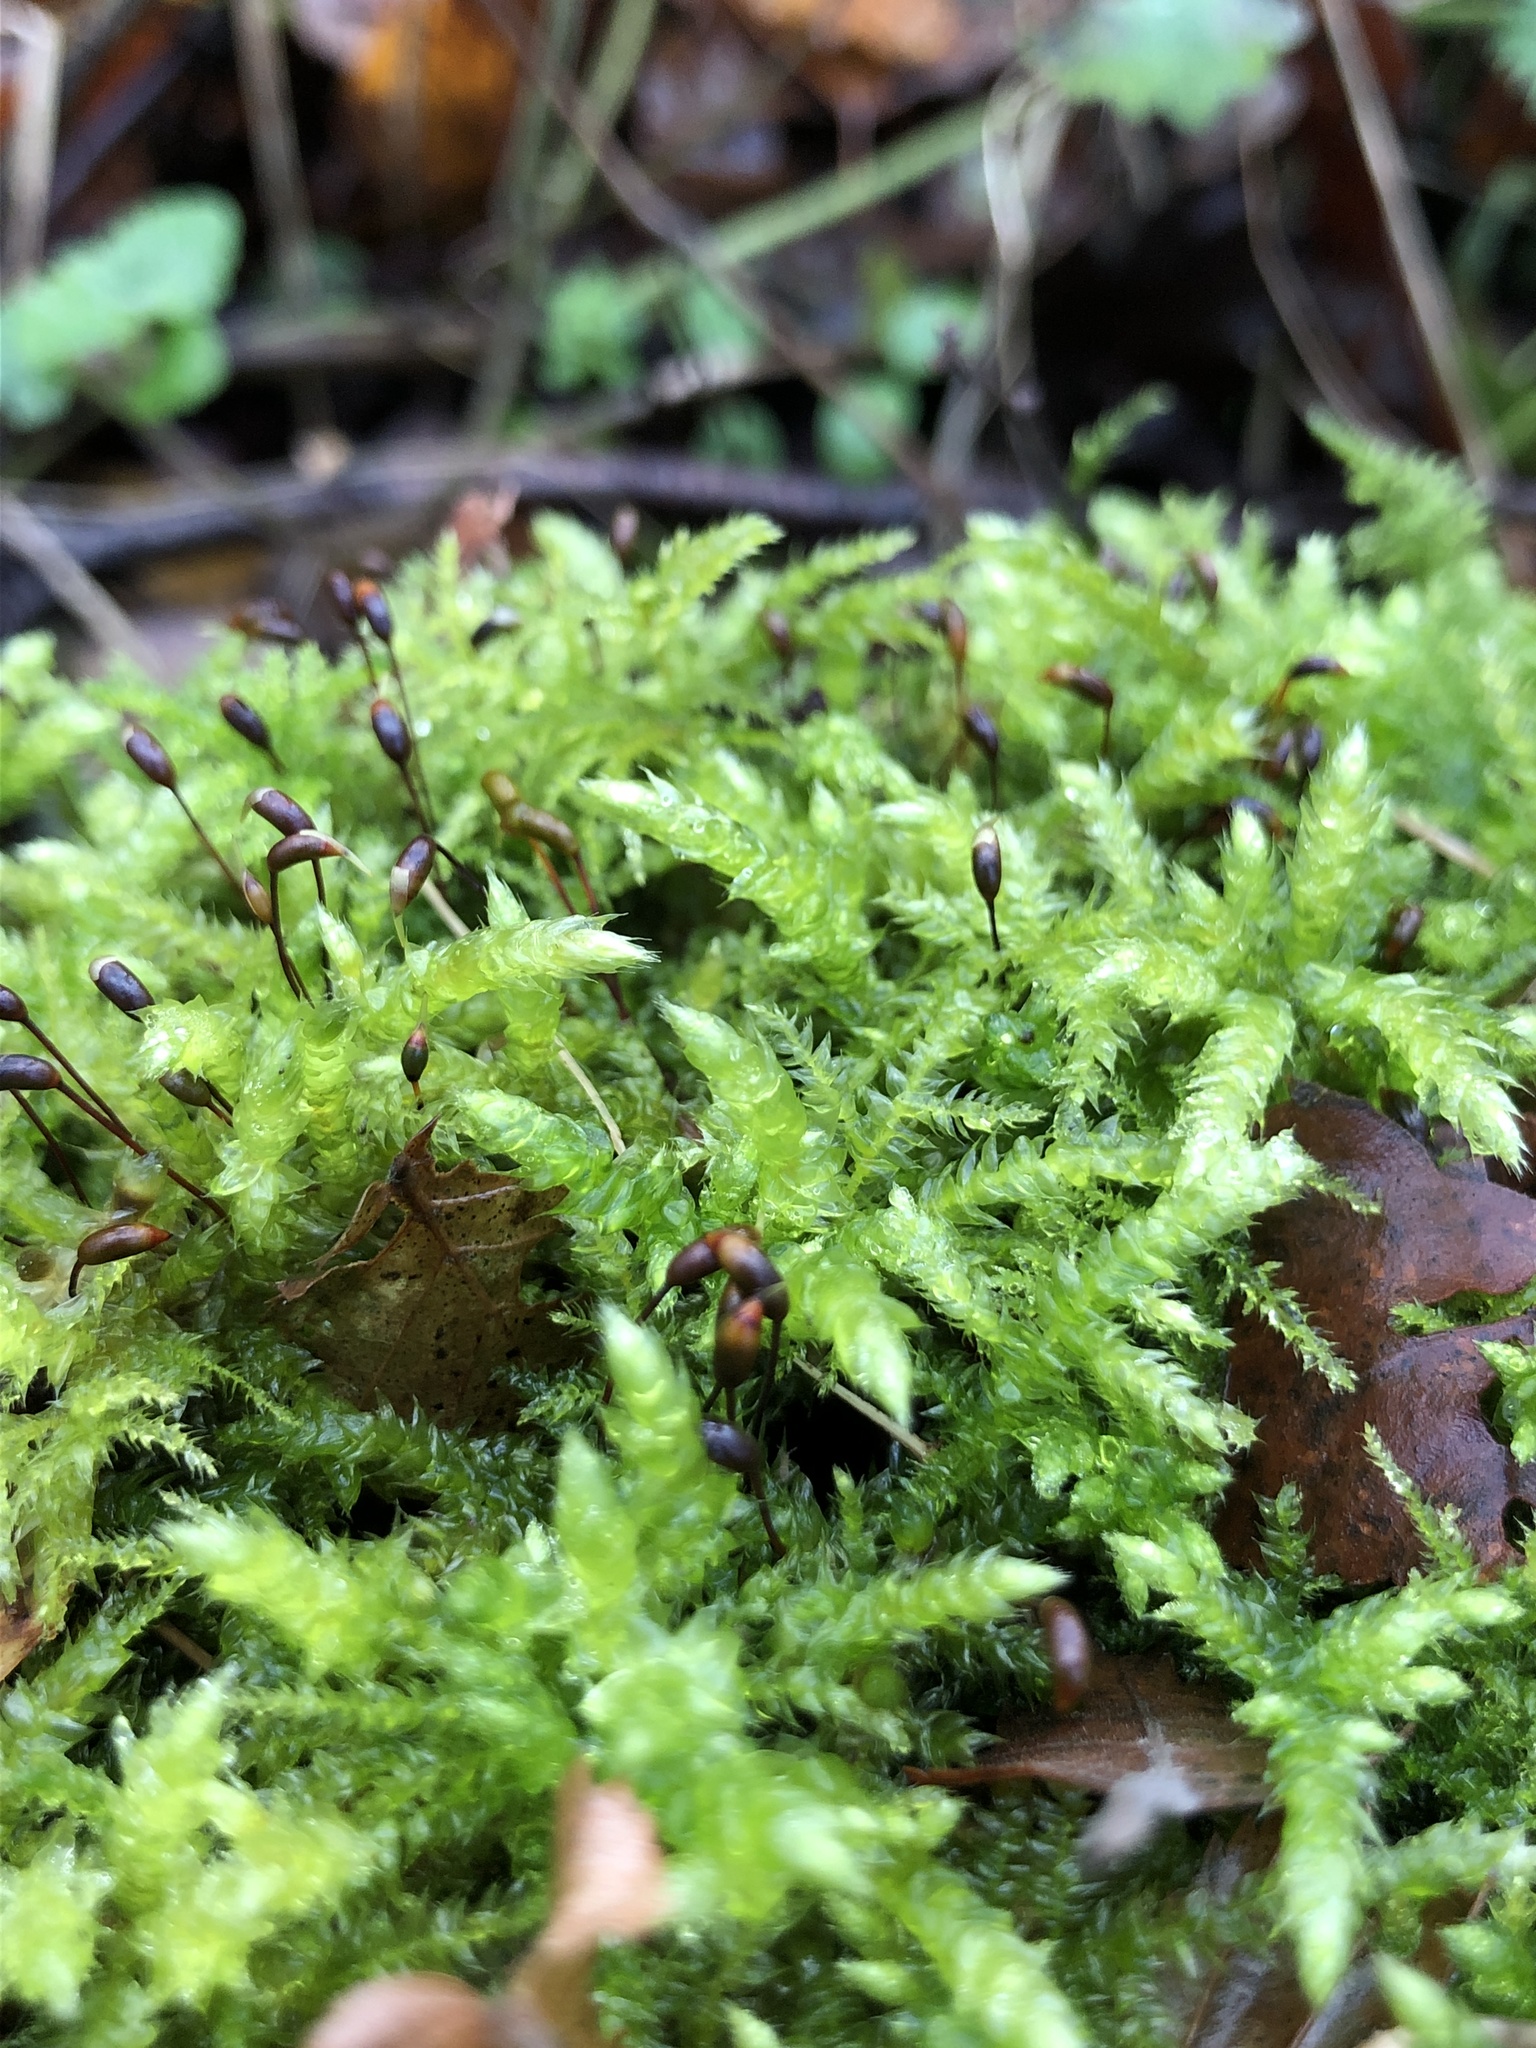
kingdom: Plantae
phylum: Bryophyta
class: Bryopsida
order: Hypnales
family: Brachytheciaceae
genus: Brachythecium
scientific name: Brachythecium rutabulum
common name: Rough-stalked feather-moss
